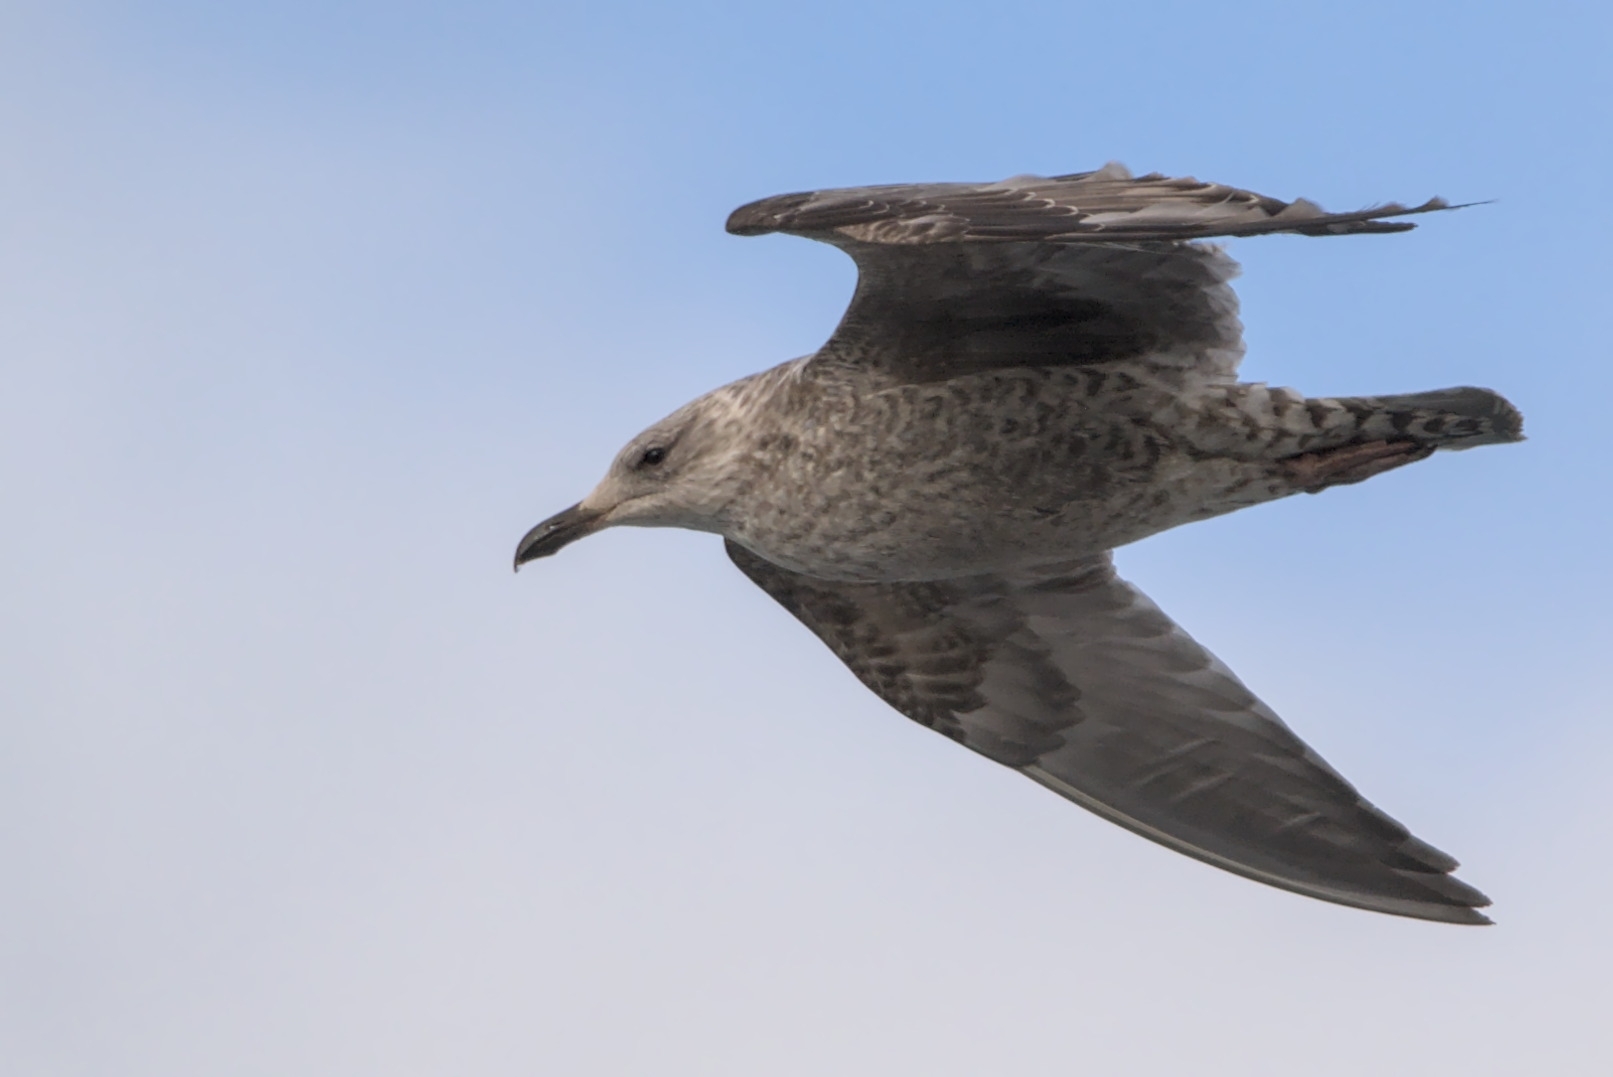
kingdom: Animalia
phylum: Chordata
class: Aves
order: Charadriiformes
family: Laridae
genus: Larus
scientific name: Larus argentatus
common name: Herring gull
